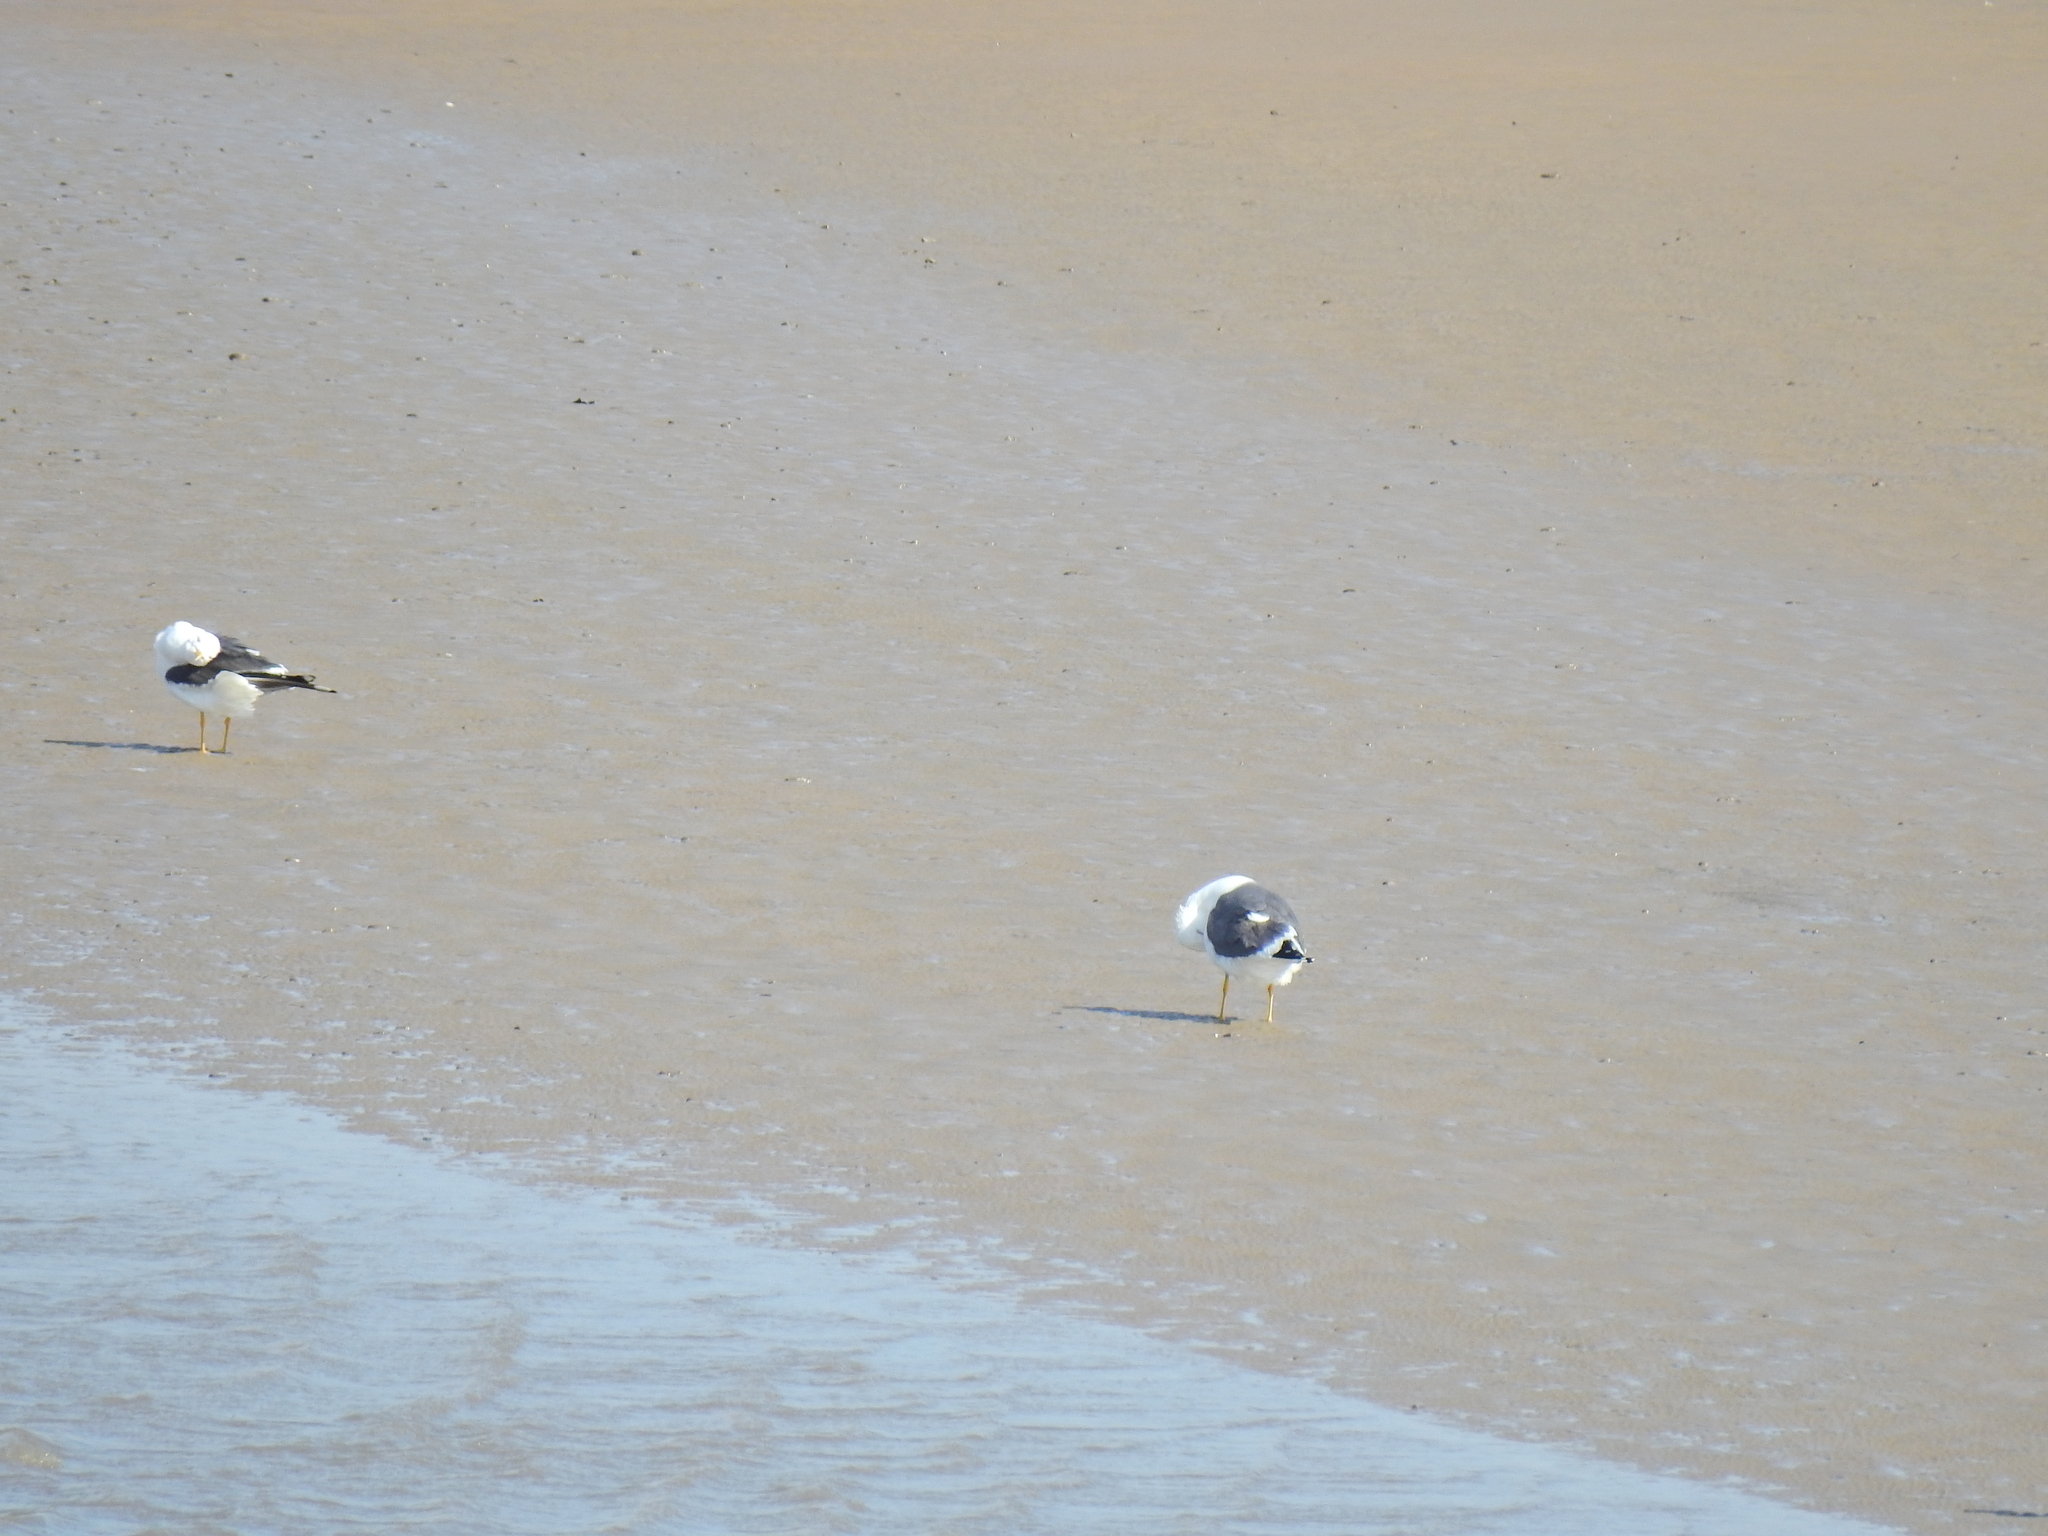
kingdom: Animalia
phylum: Chordata
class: Aves
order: Charadriiformes
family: Laridae
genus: Larus
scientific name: Larus fuscus
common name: Lesser black-backed gull
